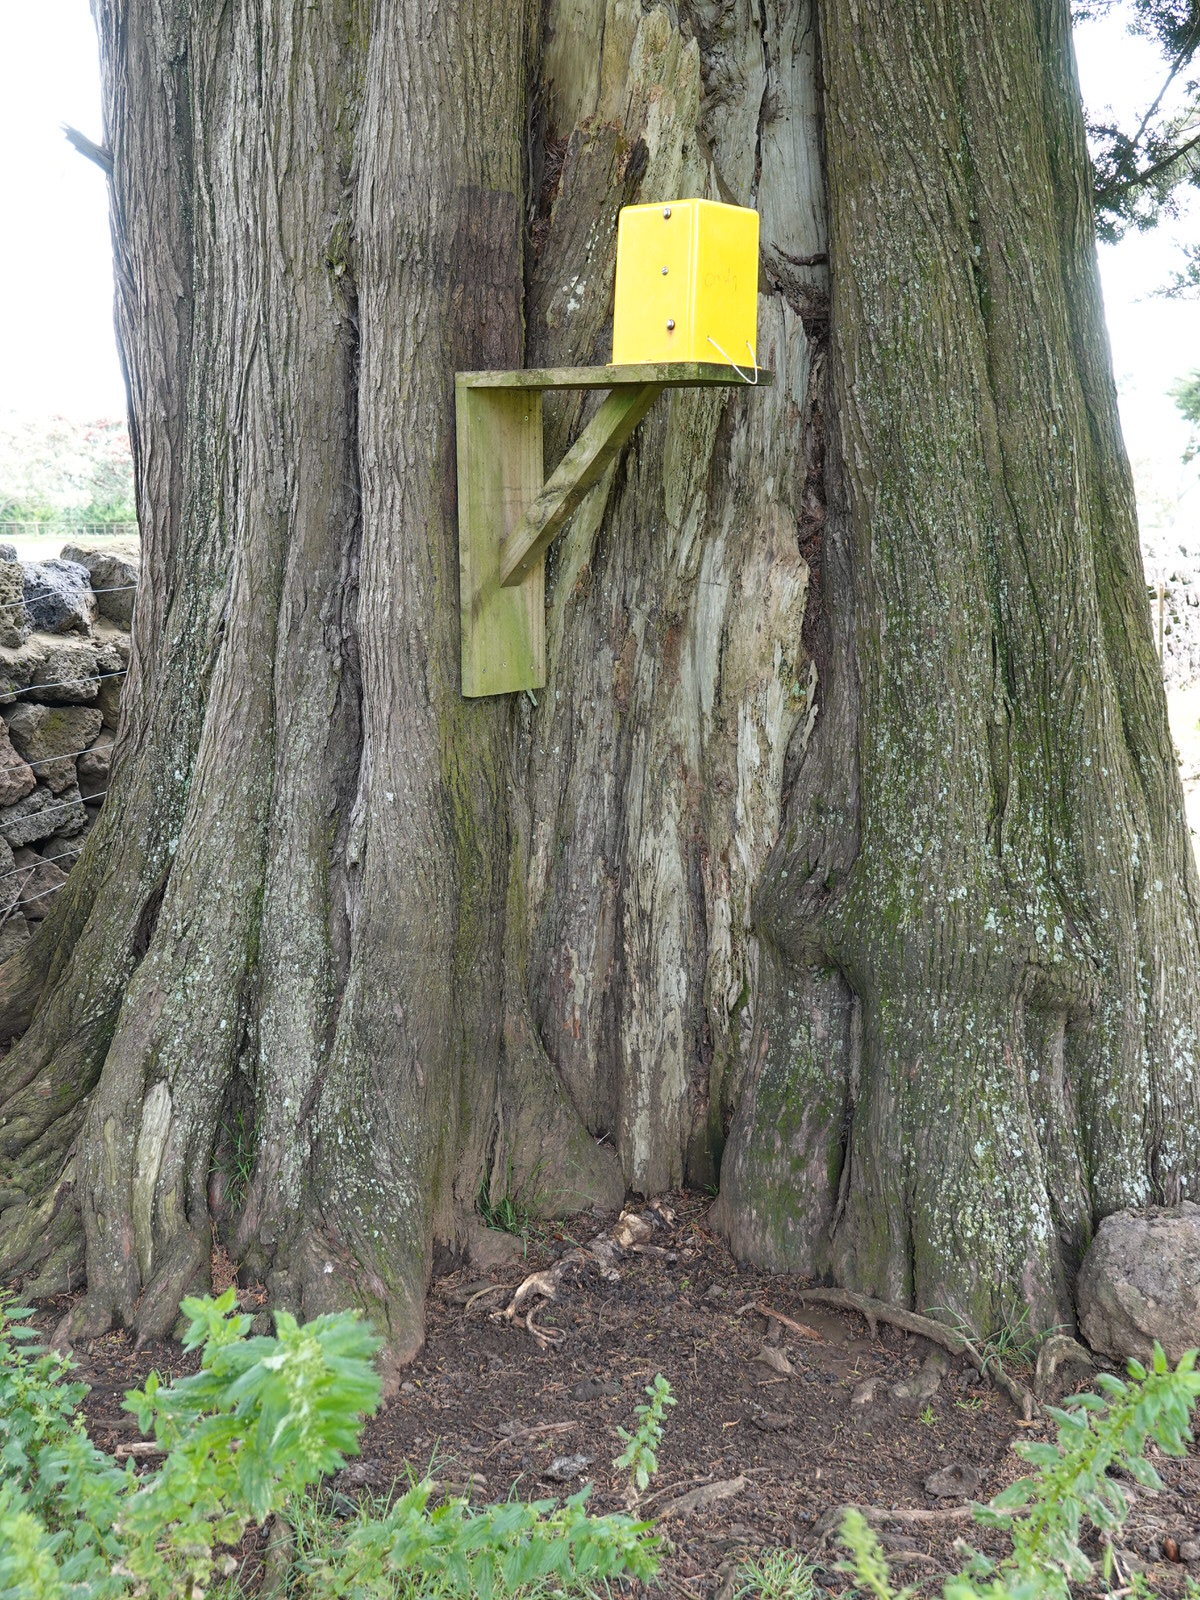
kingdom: Animalia
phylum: Chordata
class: Mammalia
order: Diprotodontia
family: Phalangeridae
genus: Trichosurus
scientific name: Trichosurus vulpecula
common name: Common brushtail
